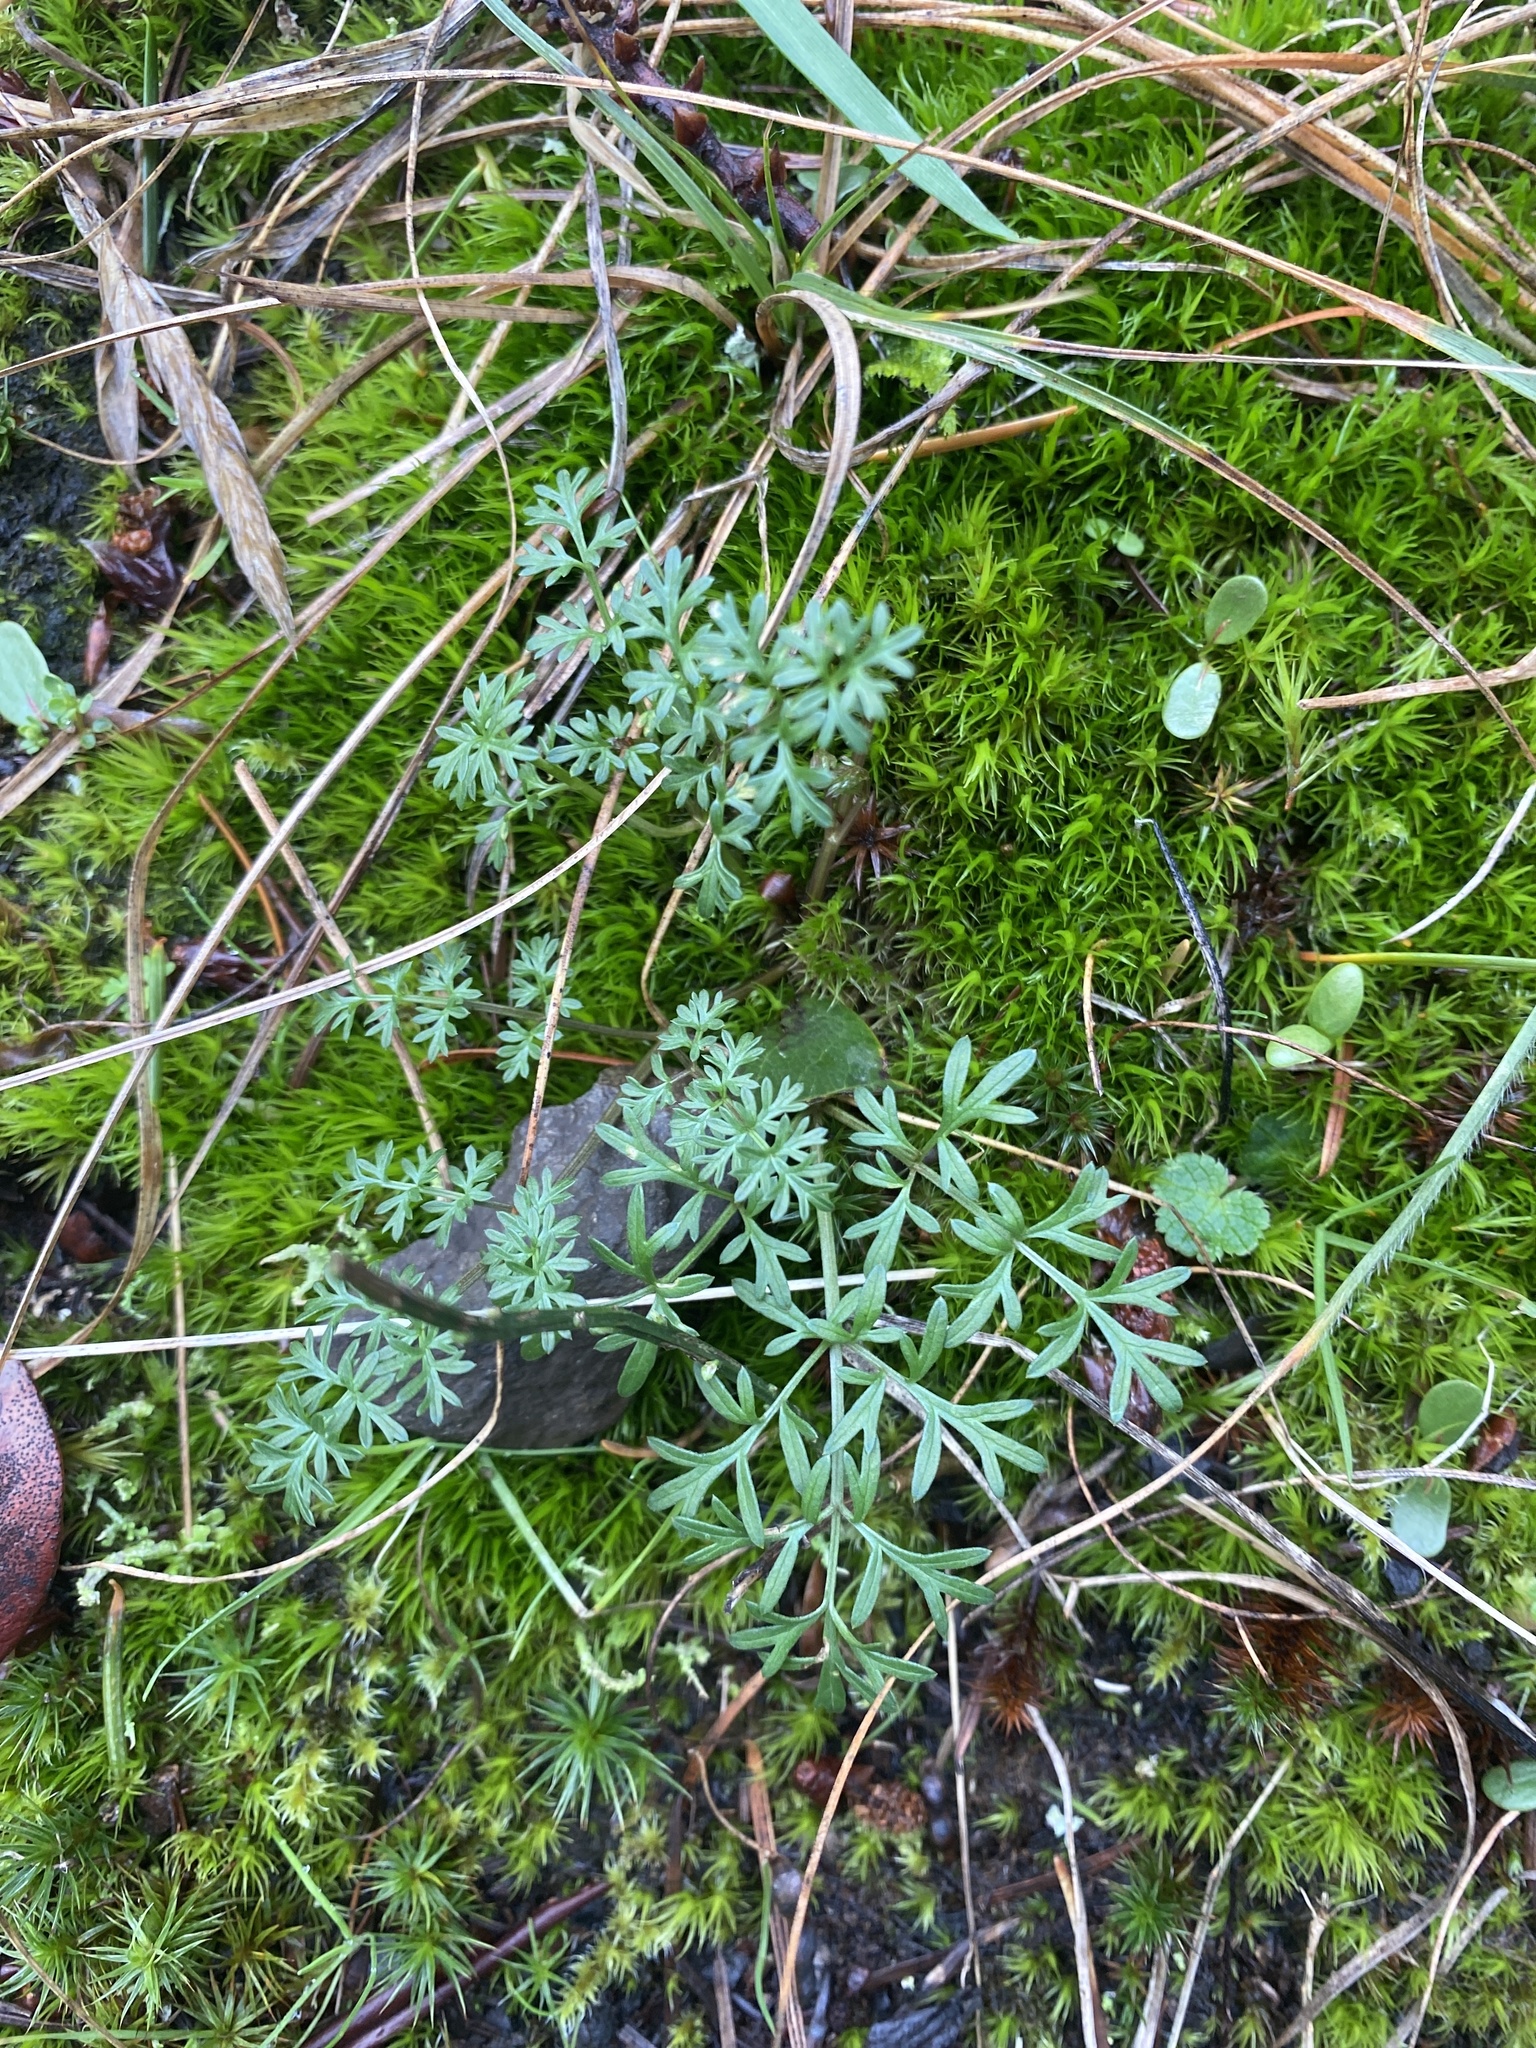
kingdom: Plantae
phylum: Tracheophyta
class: Magnoliopsida
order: Apiales
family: Apiaceae
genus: Lomatium
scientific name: Lomatium utriculatum
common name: Fine-leaf desert-parsley
